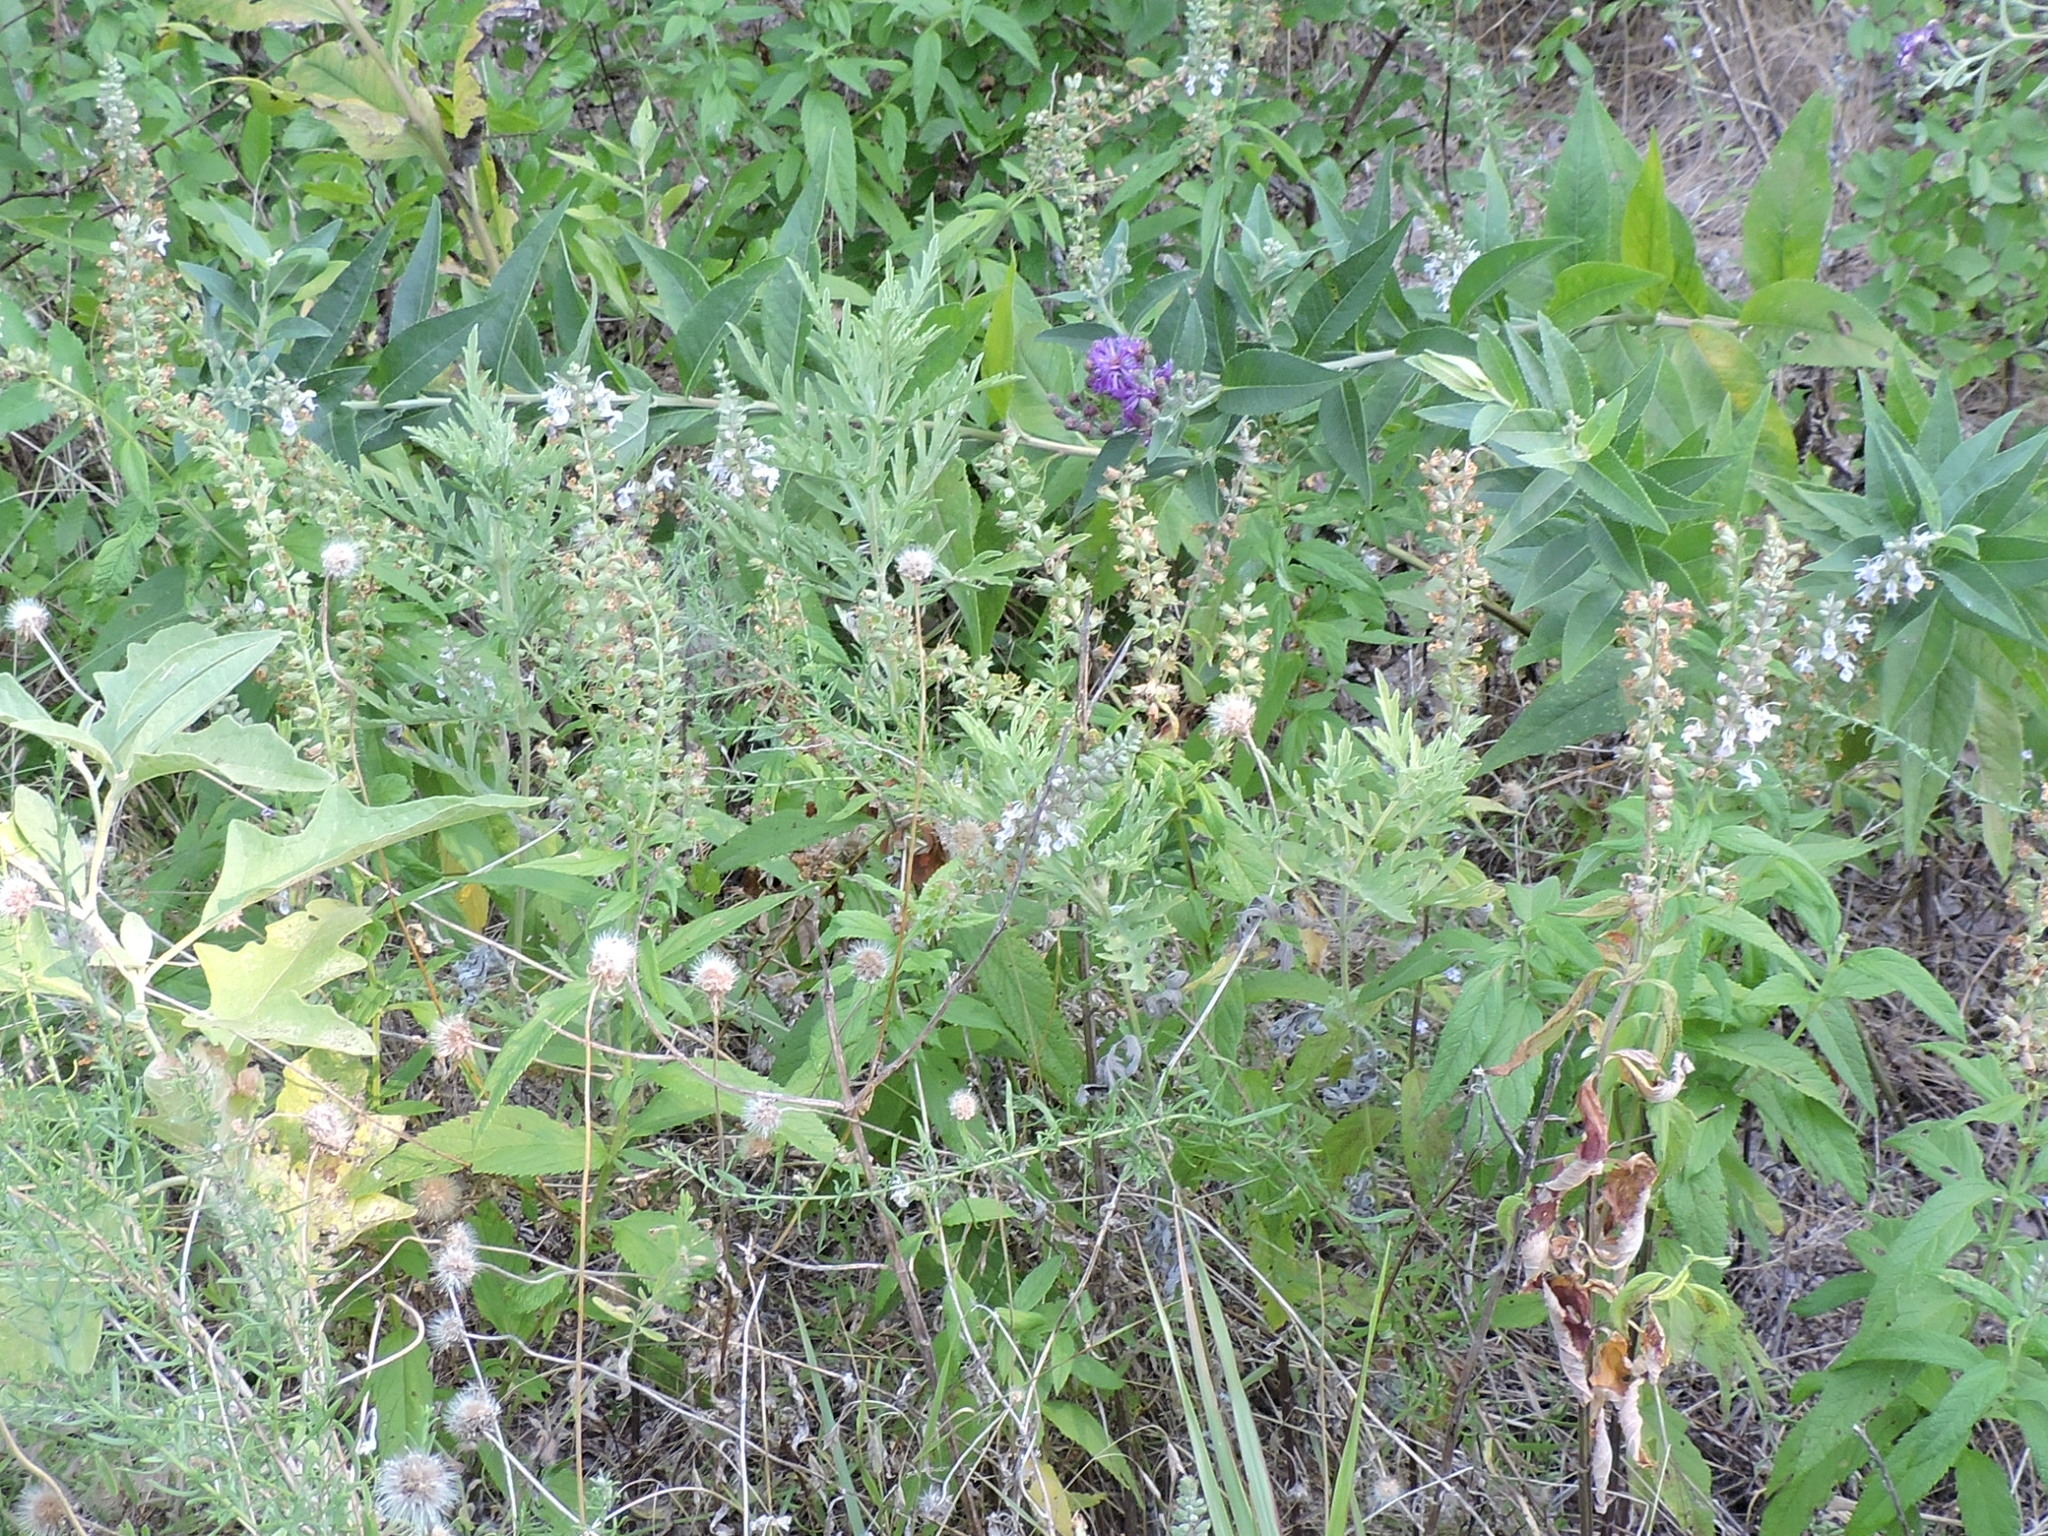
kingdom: Plantae
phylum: Tracheophyta
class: Magnoliopsida
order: Lamiales
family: Lamiaceae
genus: Teucrium
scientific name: Teucrium canadense
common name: American germander
